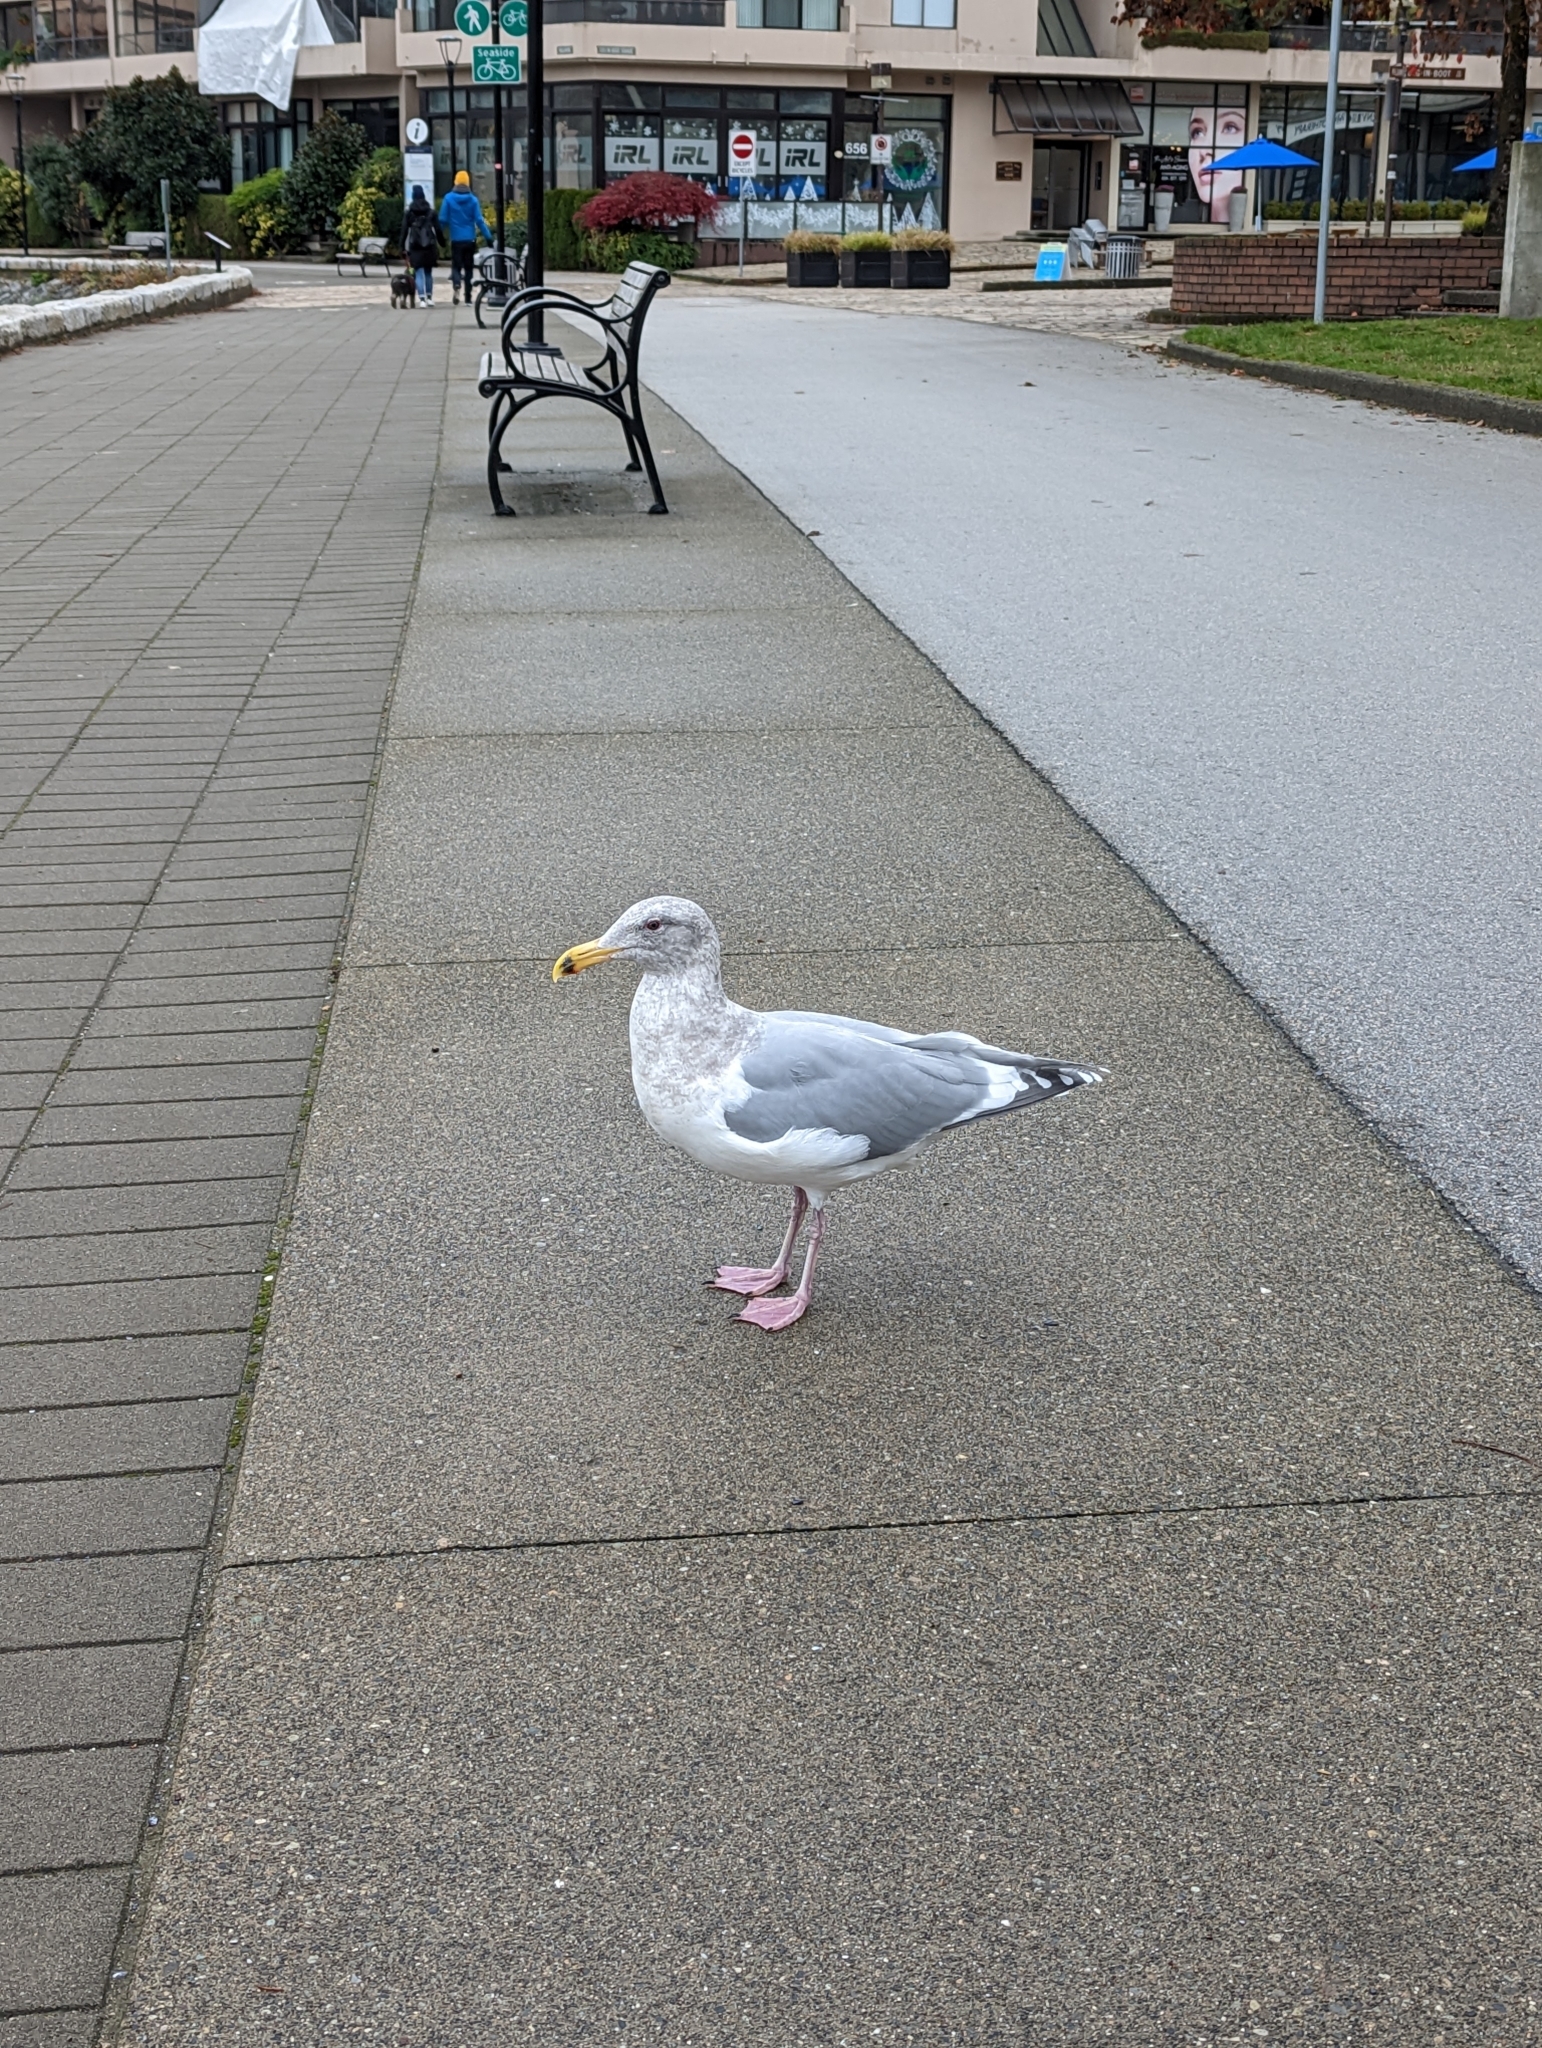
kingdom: Animalia
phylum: Chordata
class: Aves
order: Charadriiformes
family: Laridae
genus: Larus
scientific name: Larus
